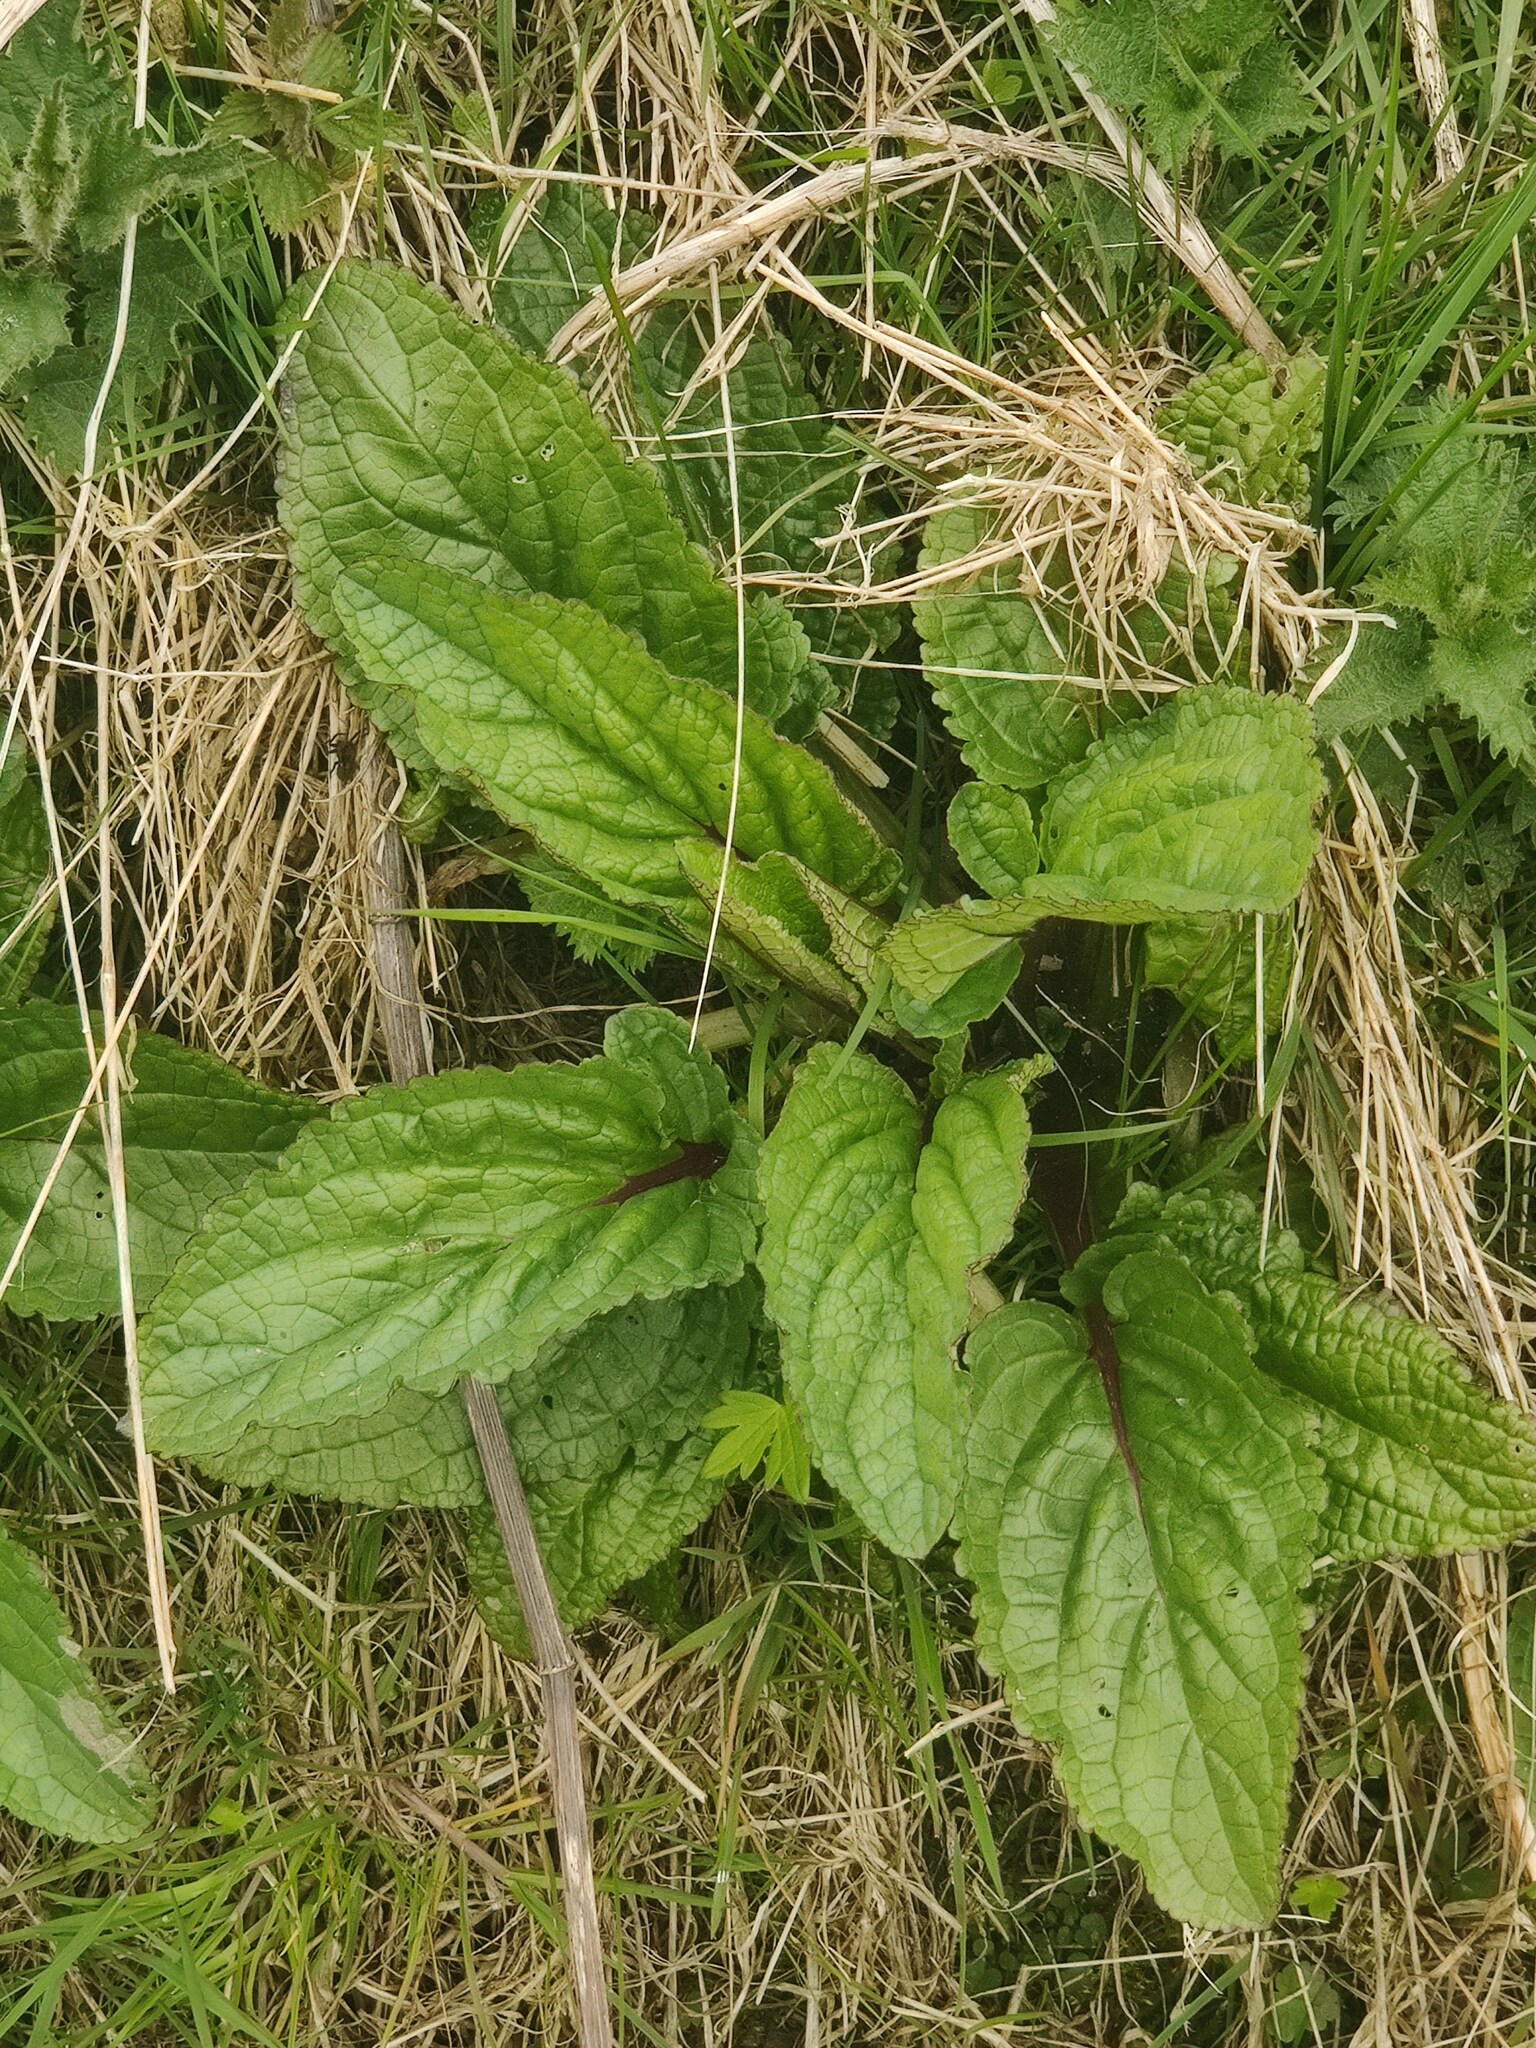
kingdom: Plantae
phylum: Tracheophyta
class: Magnoliopsida
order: Lamiales
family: Scrophulariaceae
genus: Scrophularia
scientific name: Scrophularia auriculata
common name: Water betony
